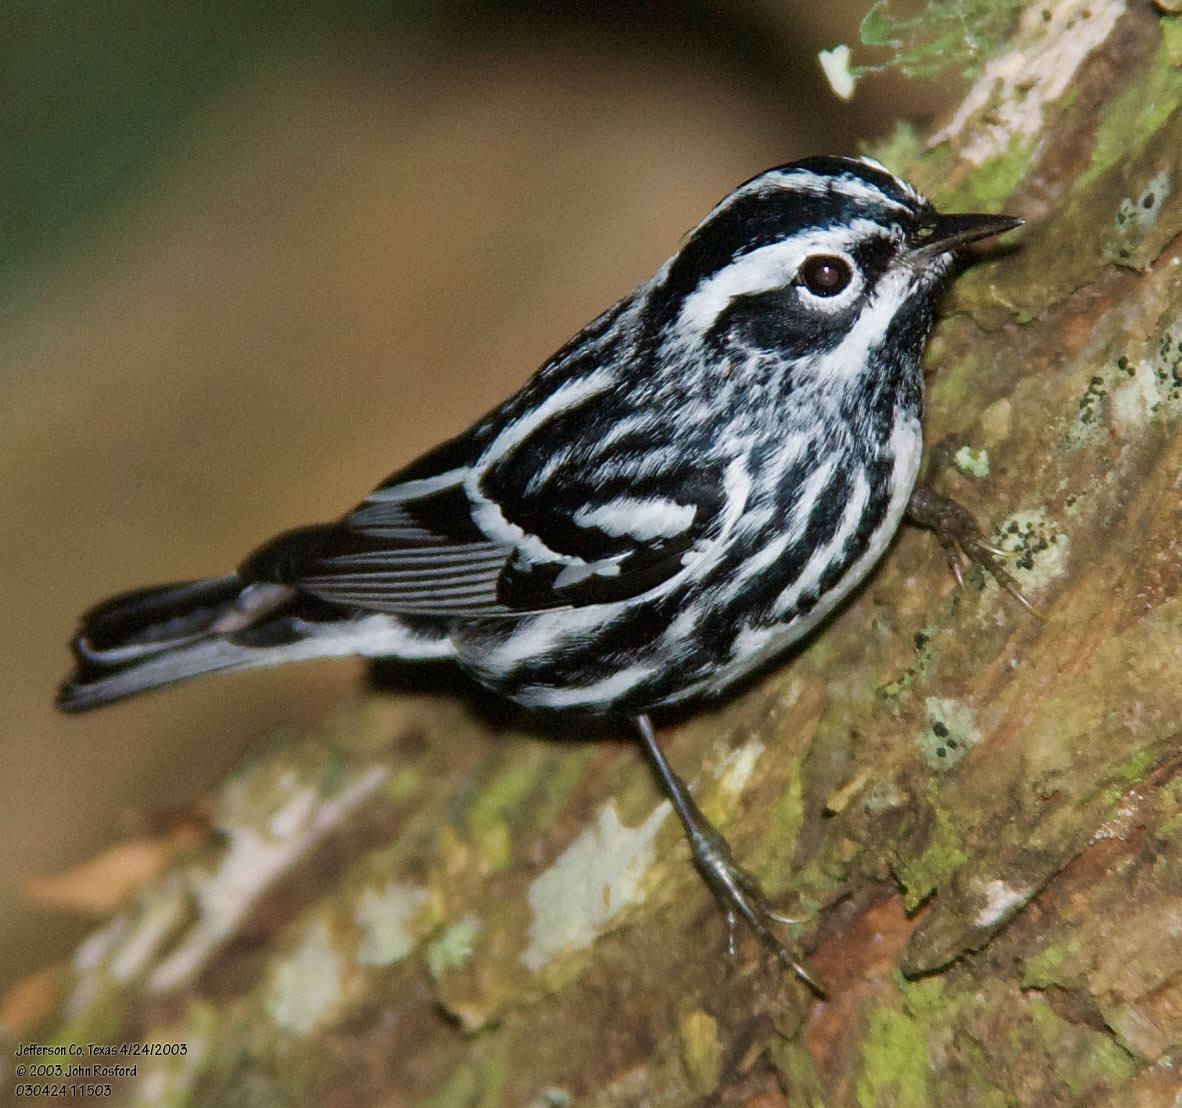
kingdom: Animalia
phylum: Chordata
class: Aves
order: Passeriformes
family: Parulidae
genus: Mniotilta
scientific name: Mniotilta varia
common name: Black-and-white warbler
